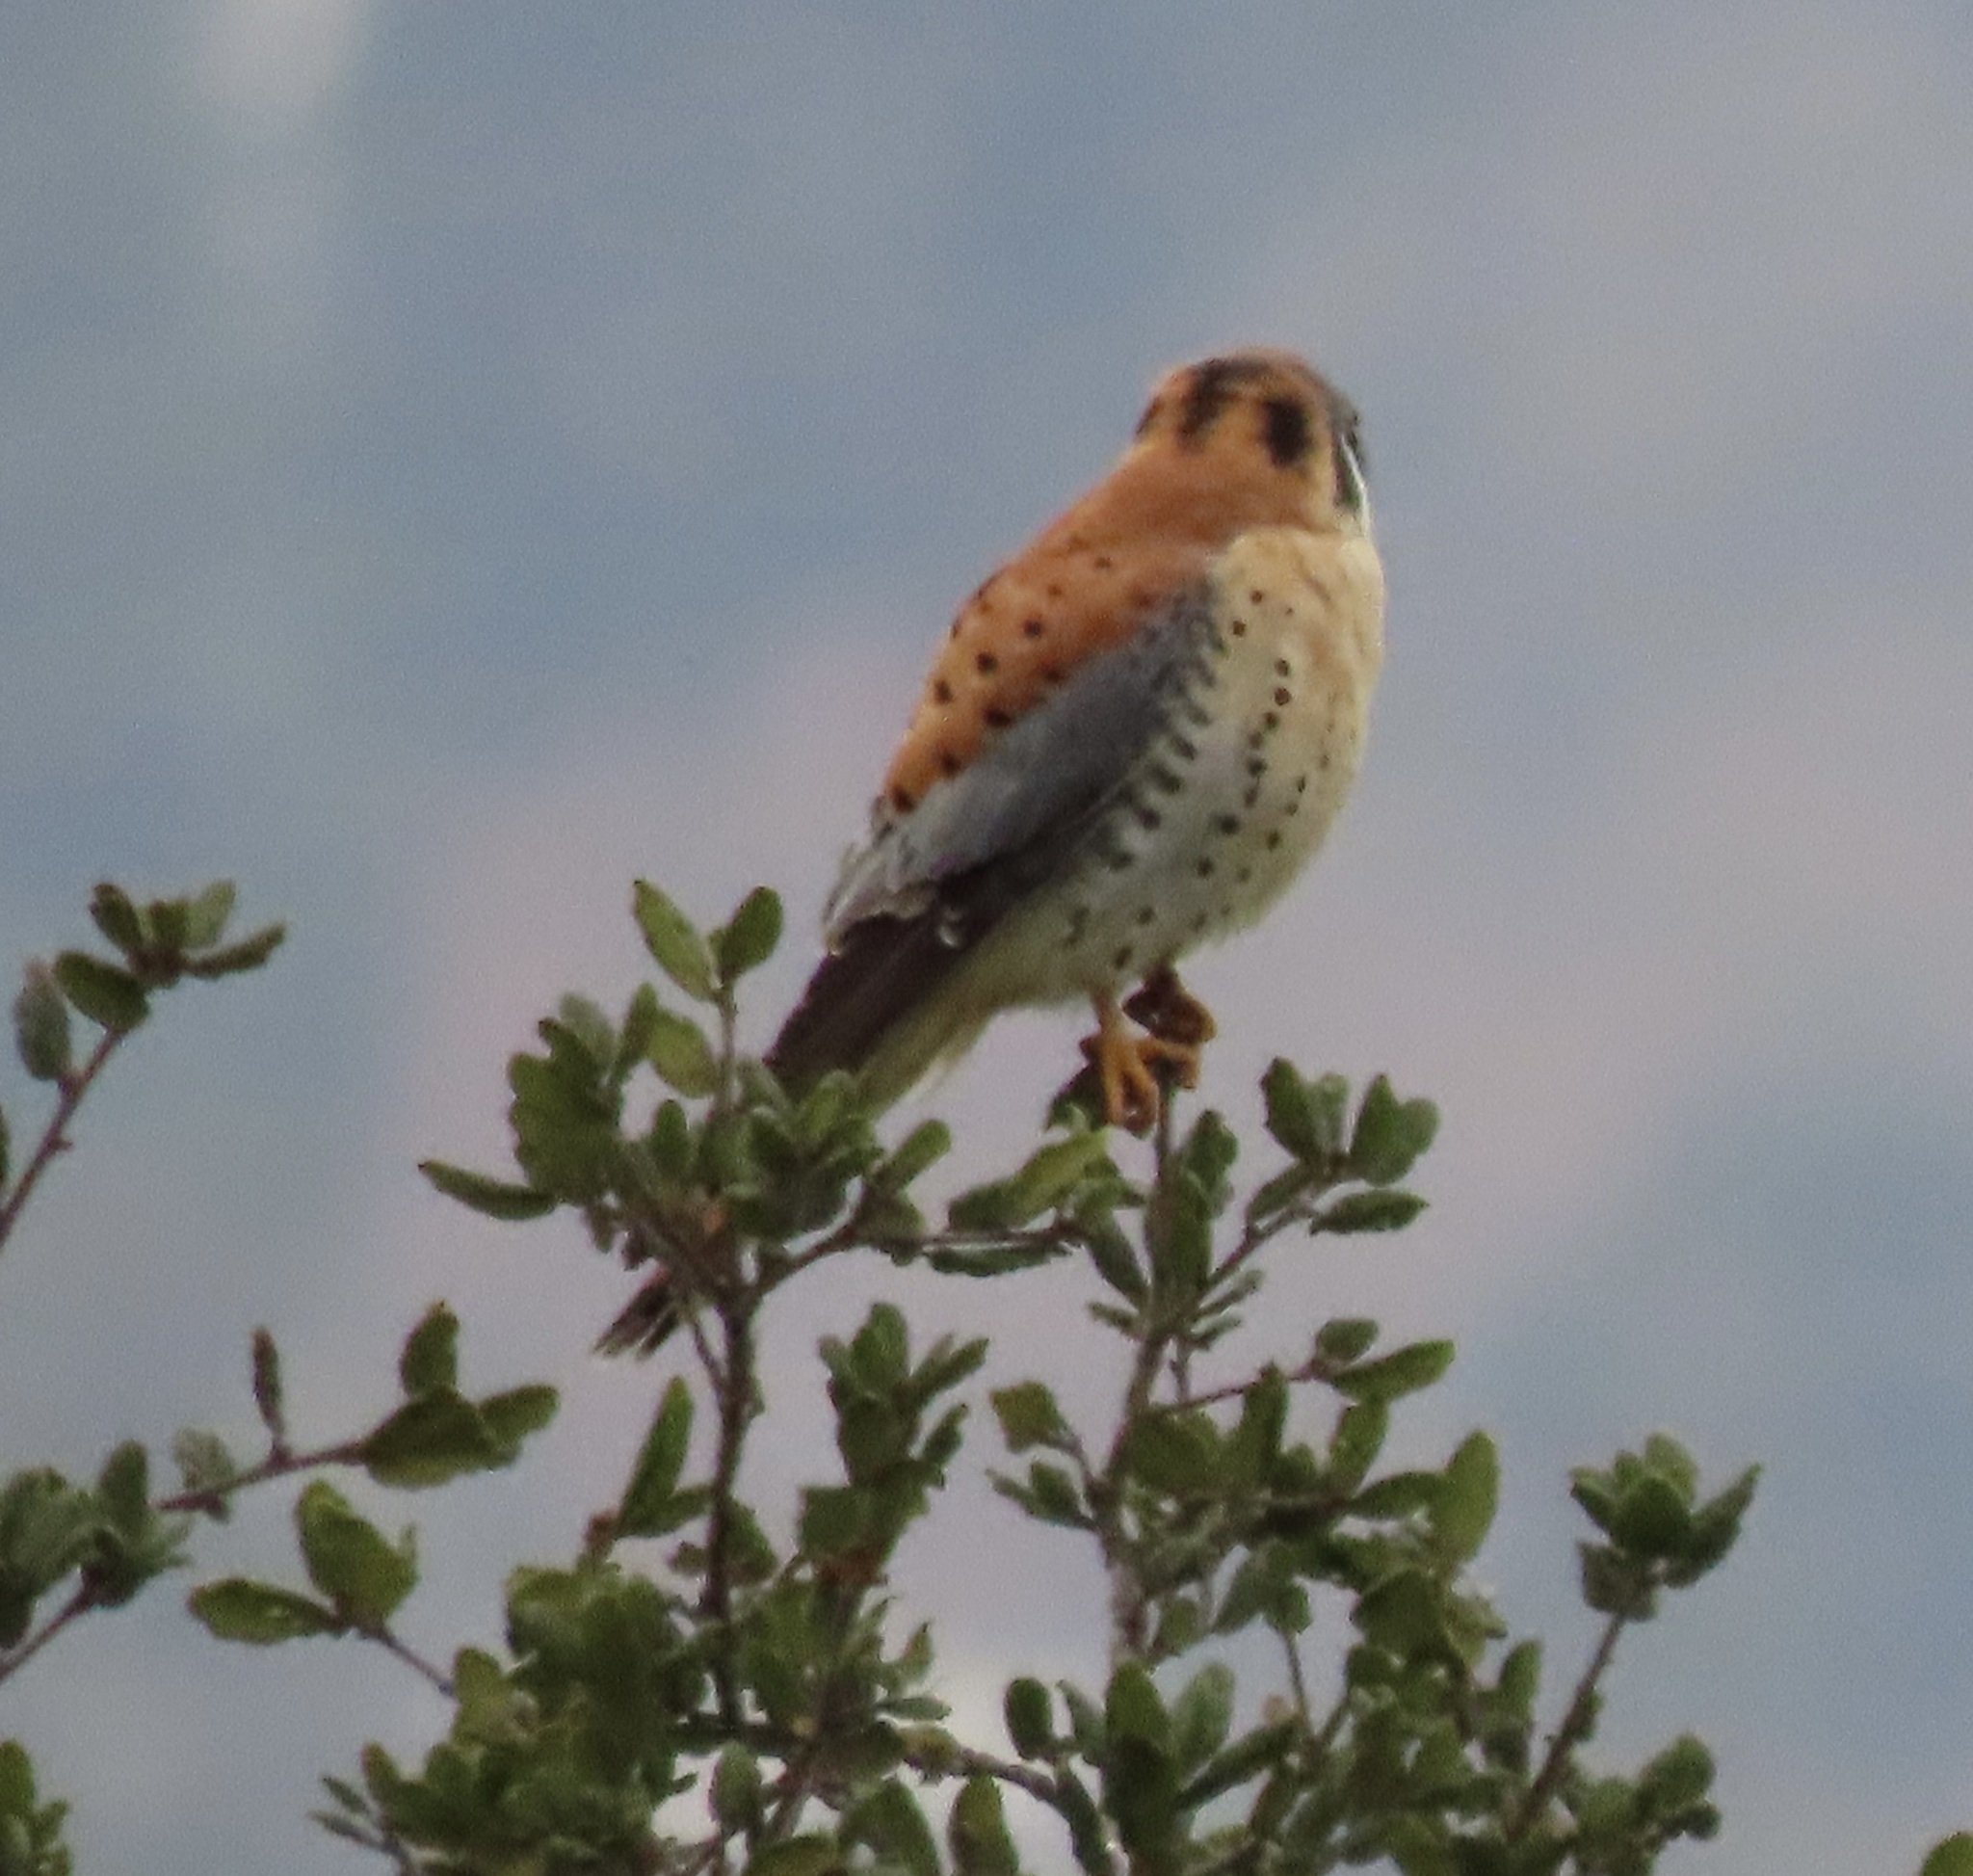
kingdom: Animalia
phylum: Chordata
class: Aves
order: Falconiformes
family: Falconidae
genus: Falco
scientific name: Falco sparverius
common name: American kestrel
